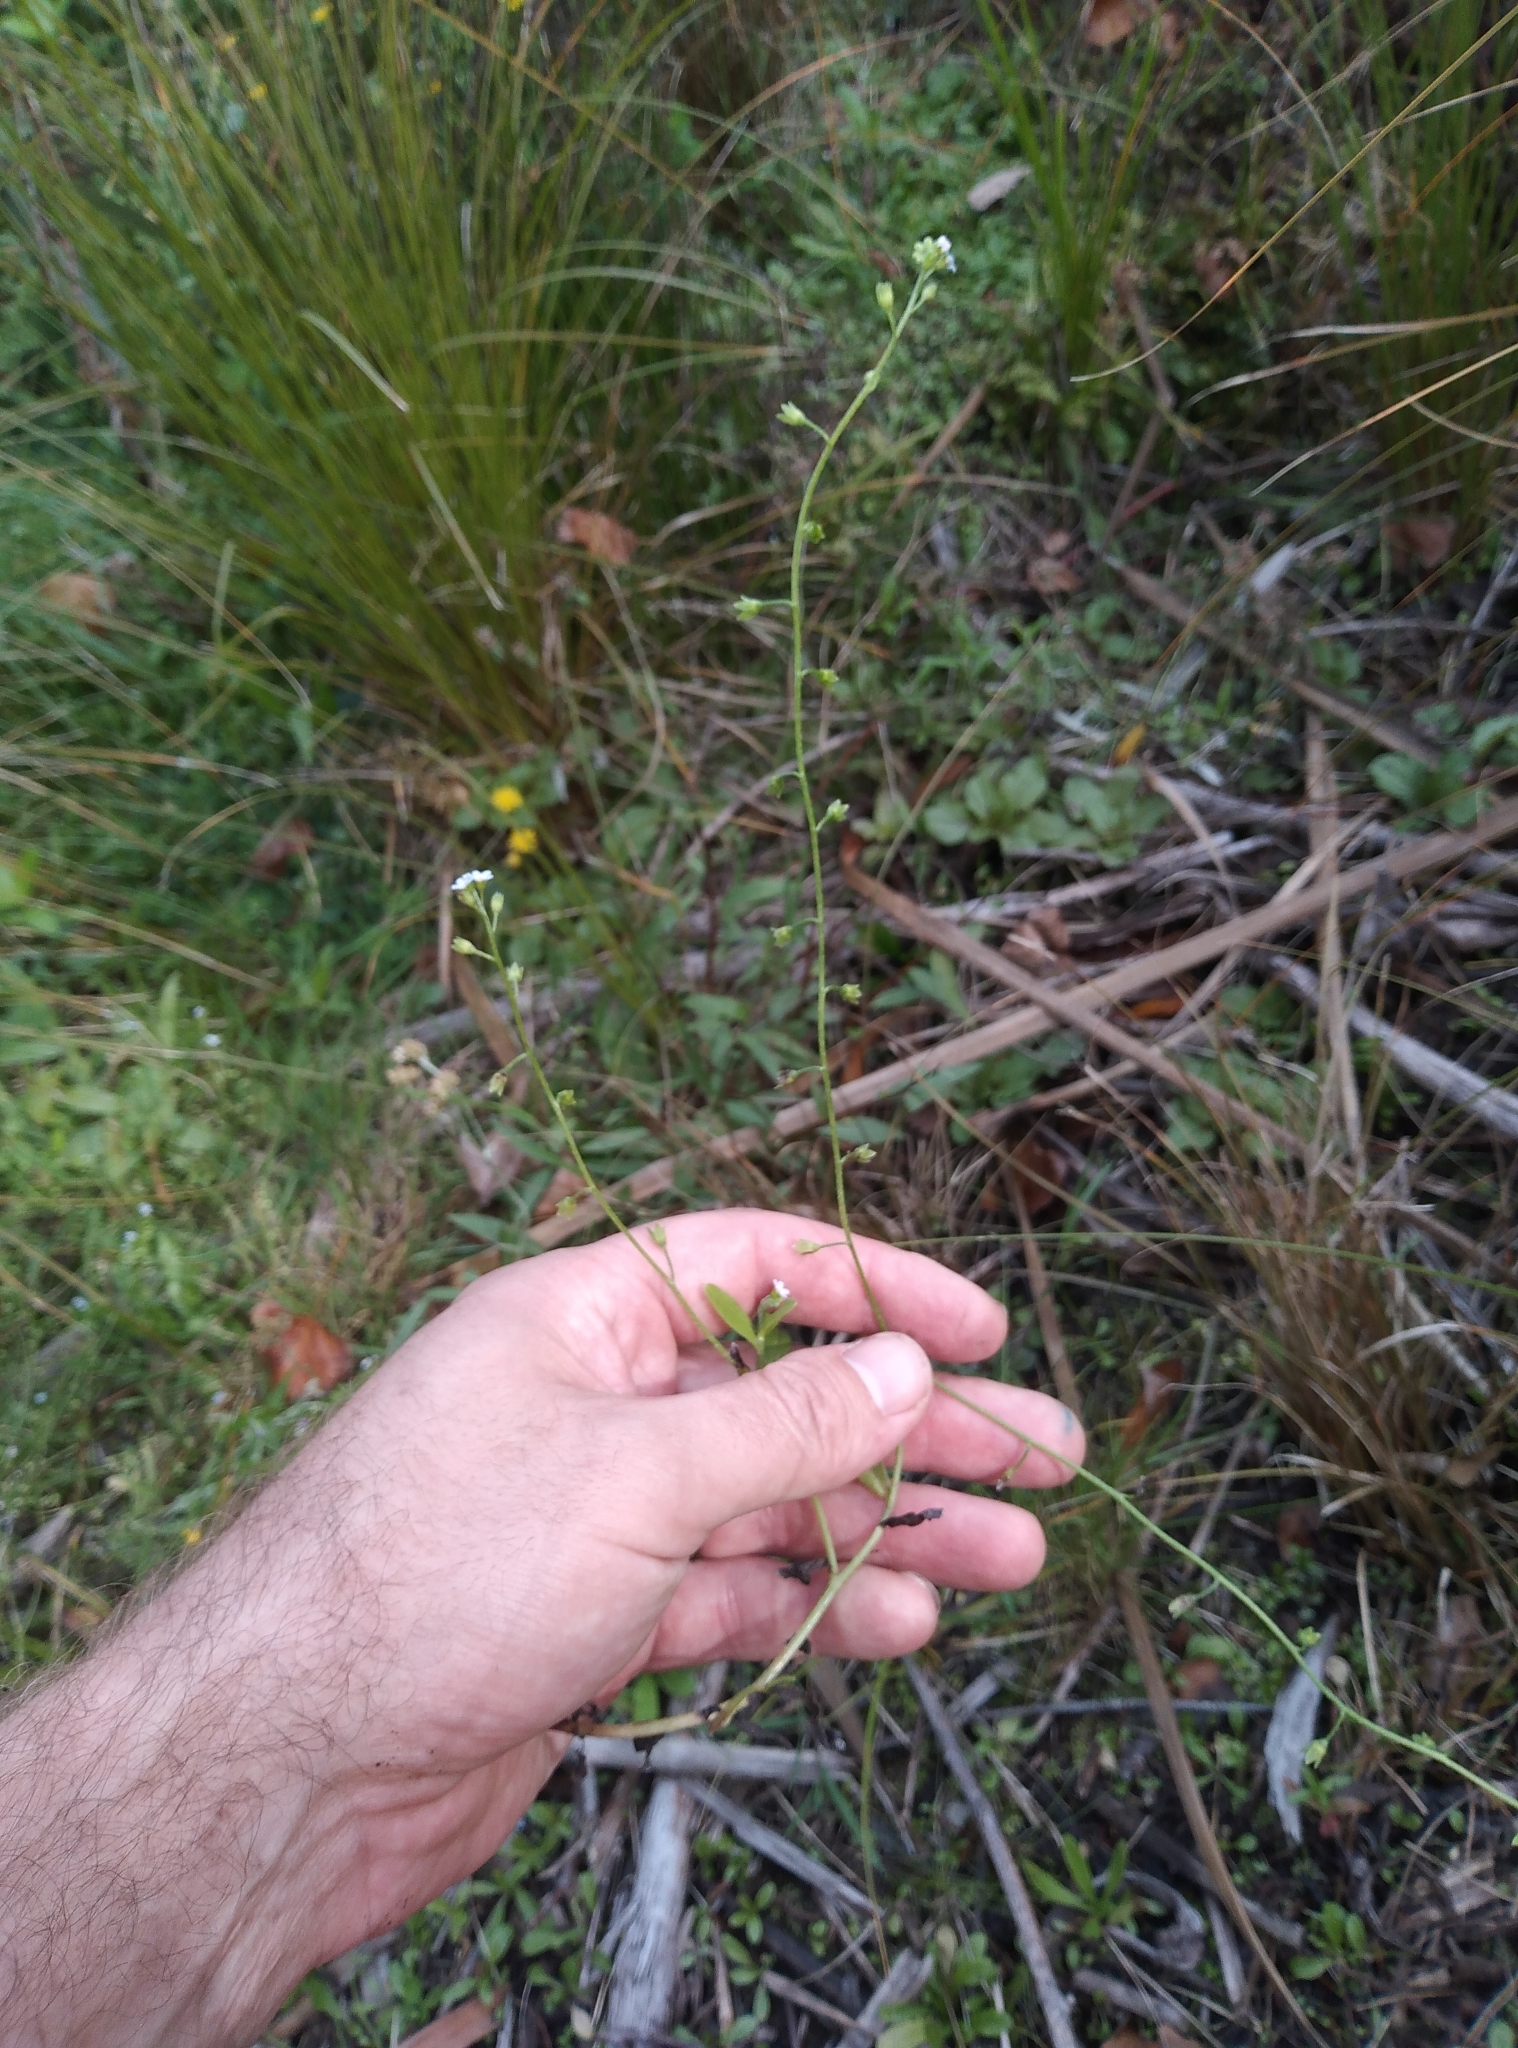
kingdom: Plantae
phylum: Tracheophyta
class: Magnoliopsida
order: Boraginales
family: Boraginaceae
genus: Myosotis
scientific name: Myosotis laxa
